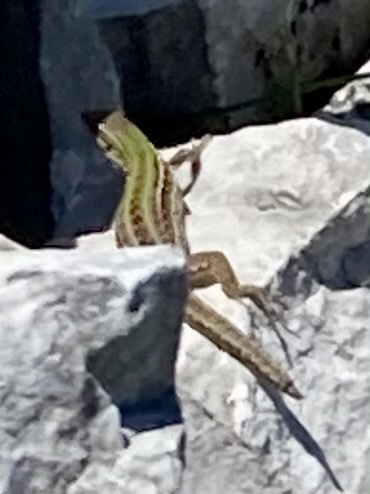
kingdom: Animalia
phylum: Chordata
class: Squamata
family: Lacertidae
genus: Podarcis
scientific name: Podarcis siculus
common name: Italian wall lizard
